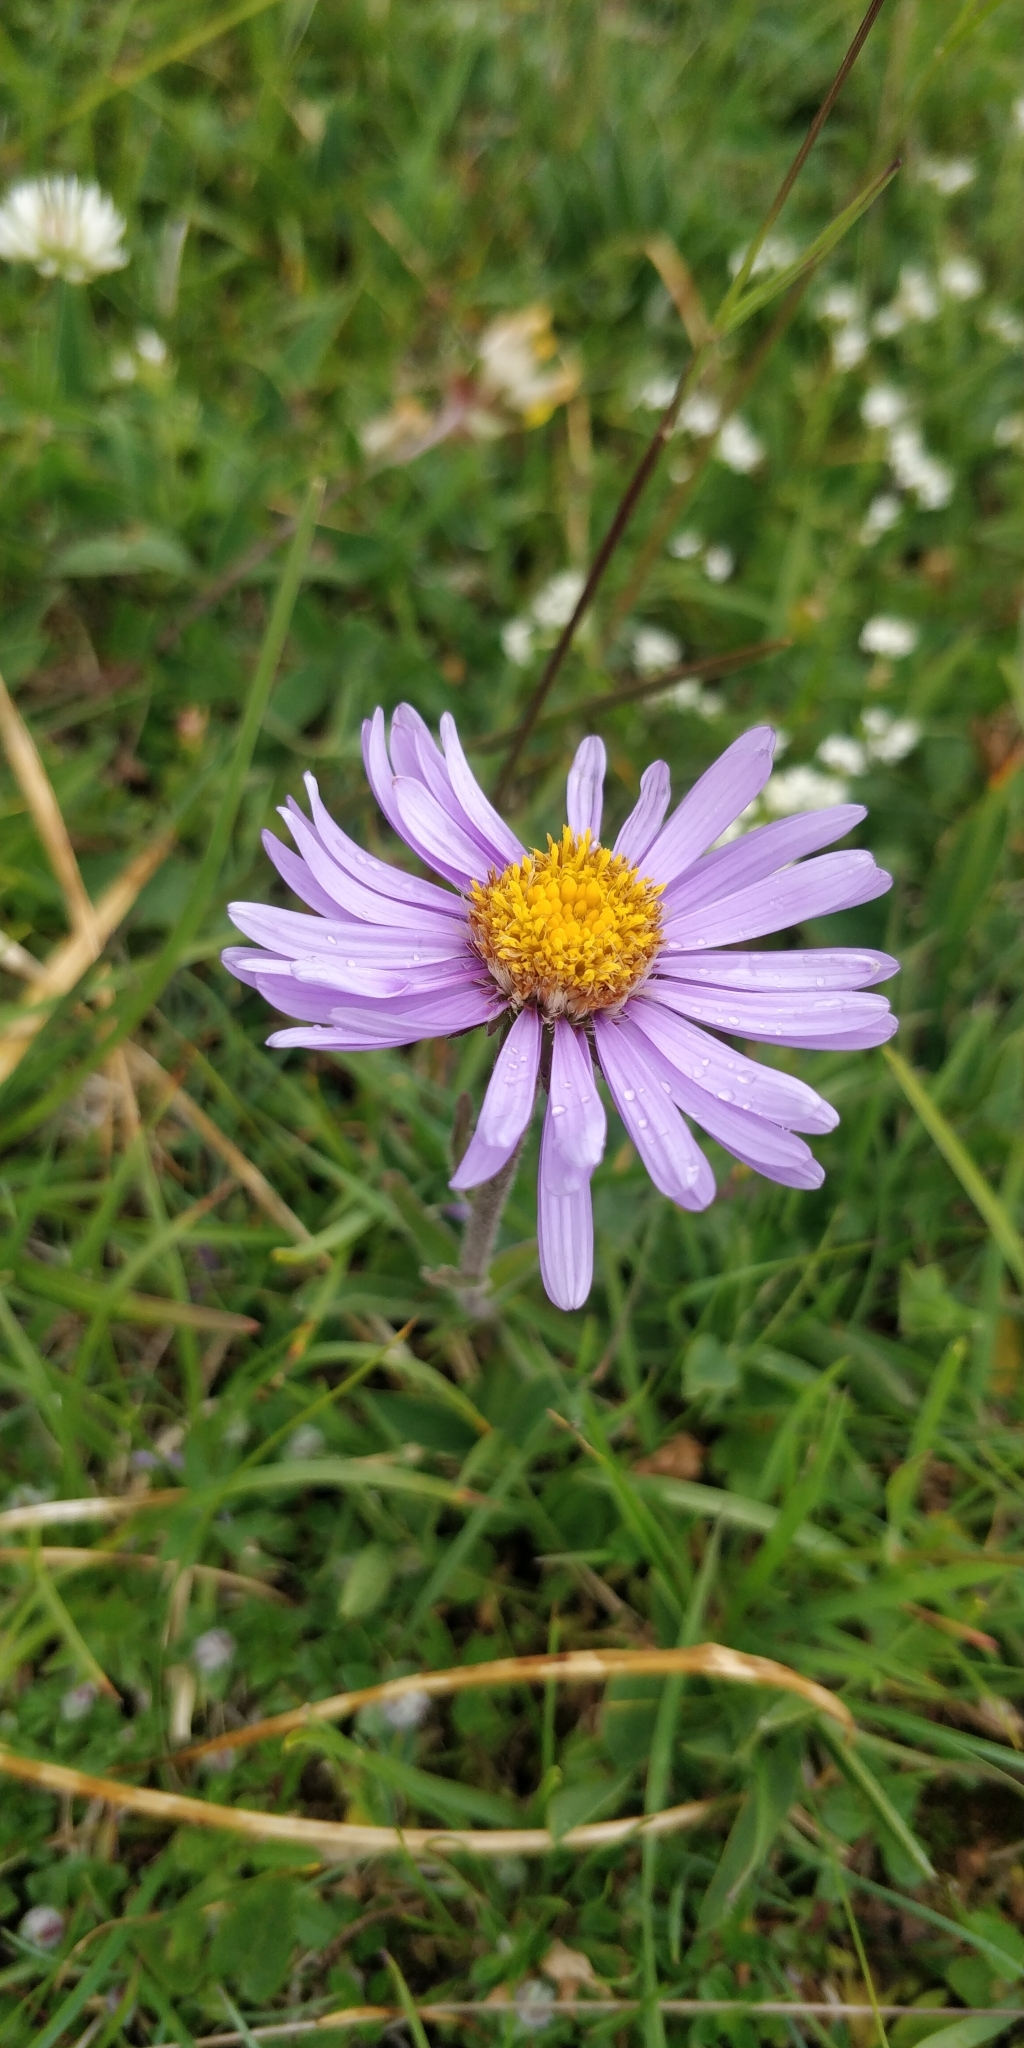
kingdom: Plantae
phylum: Tracheophyta
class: Magnoliopsida
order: Asterales
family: Asteraceae
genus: Aster
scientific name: Aster alpinus
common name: Alpine aster
